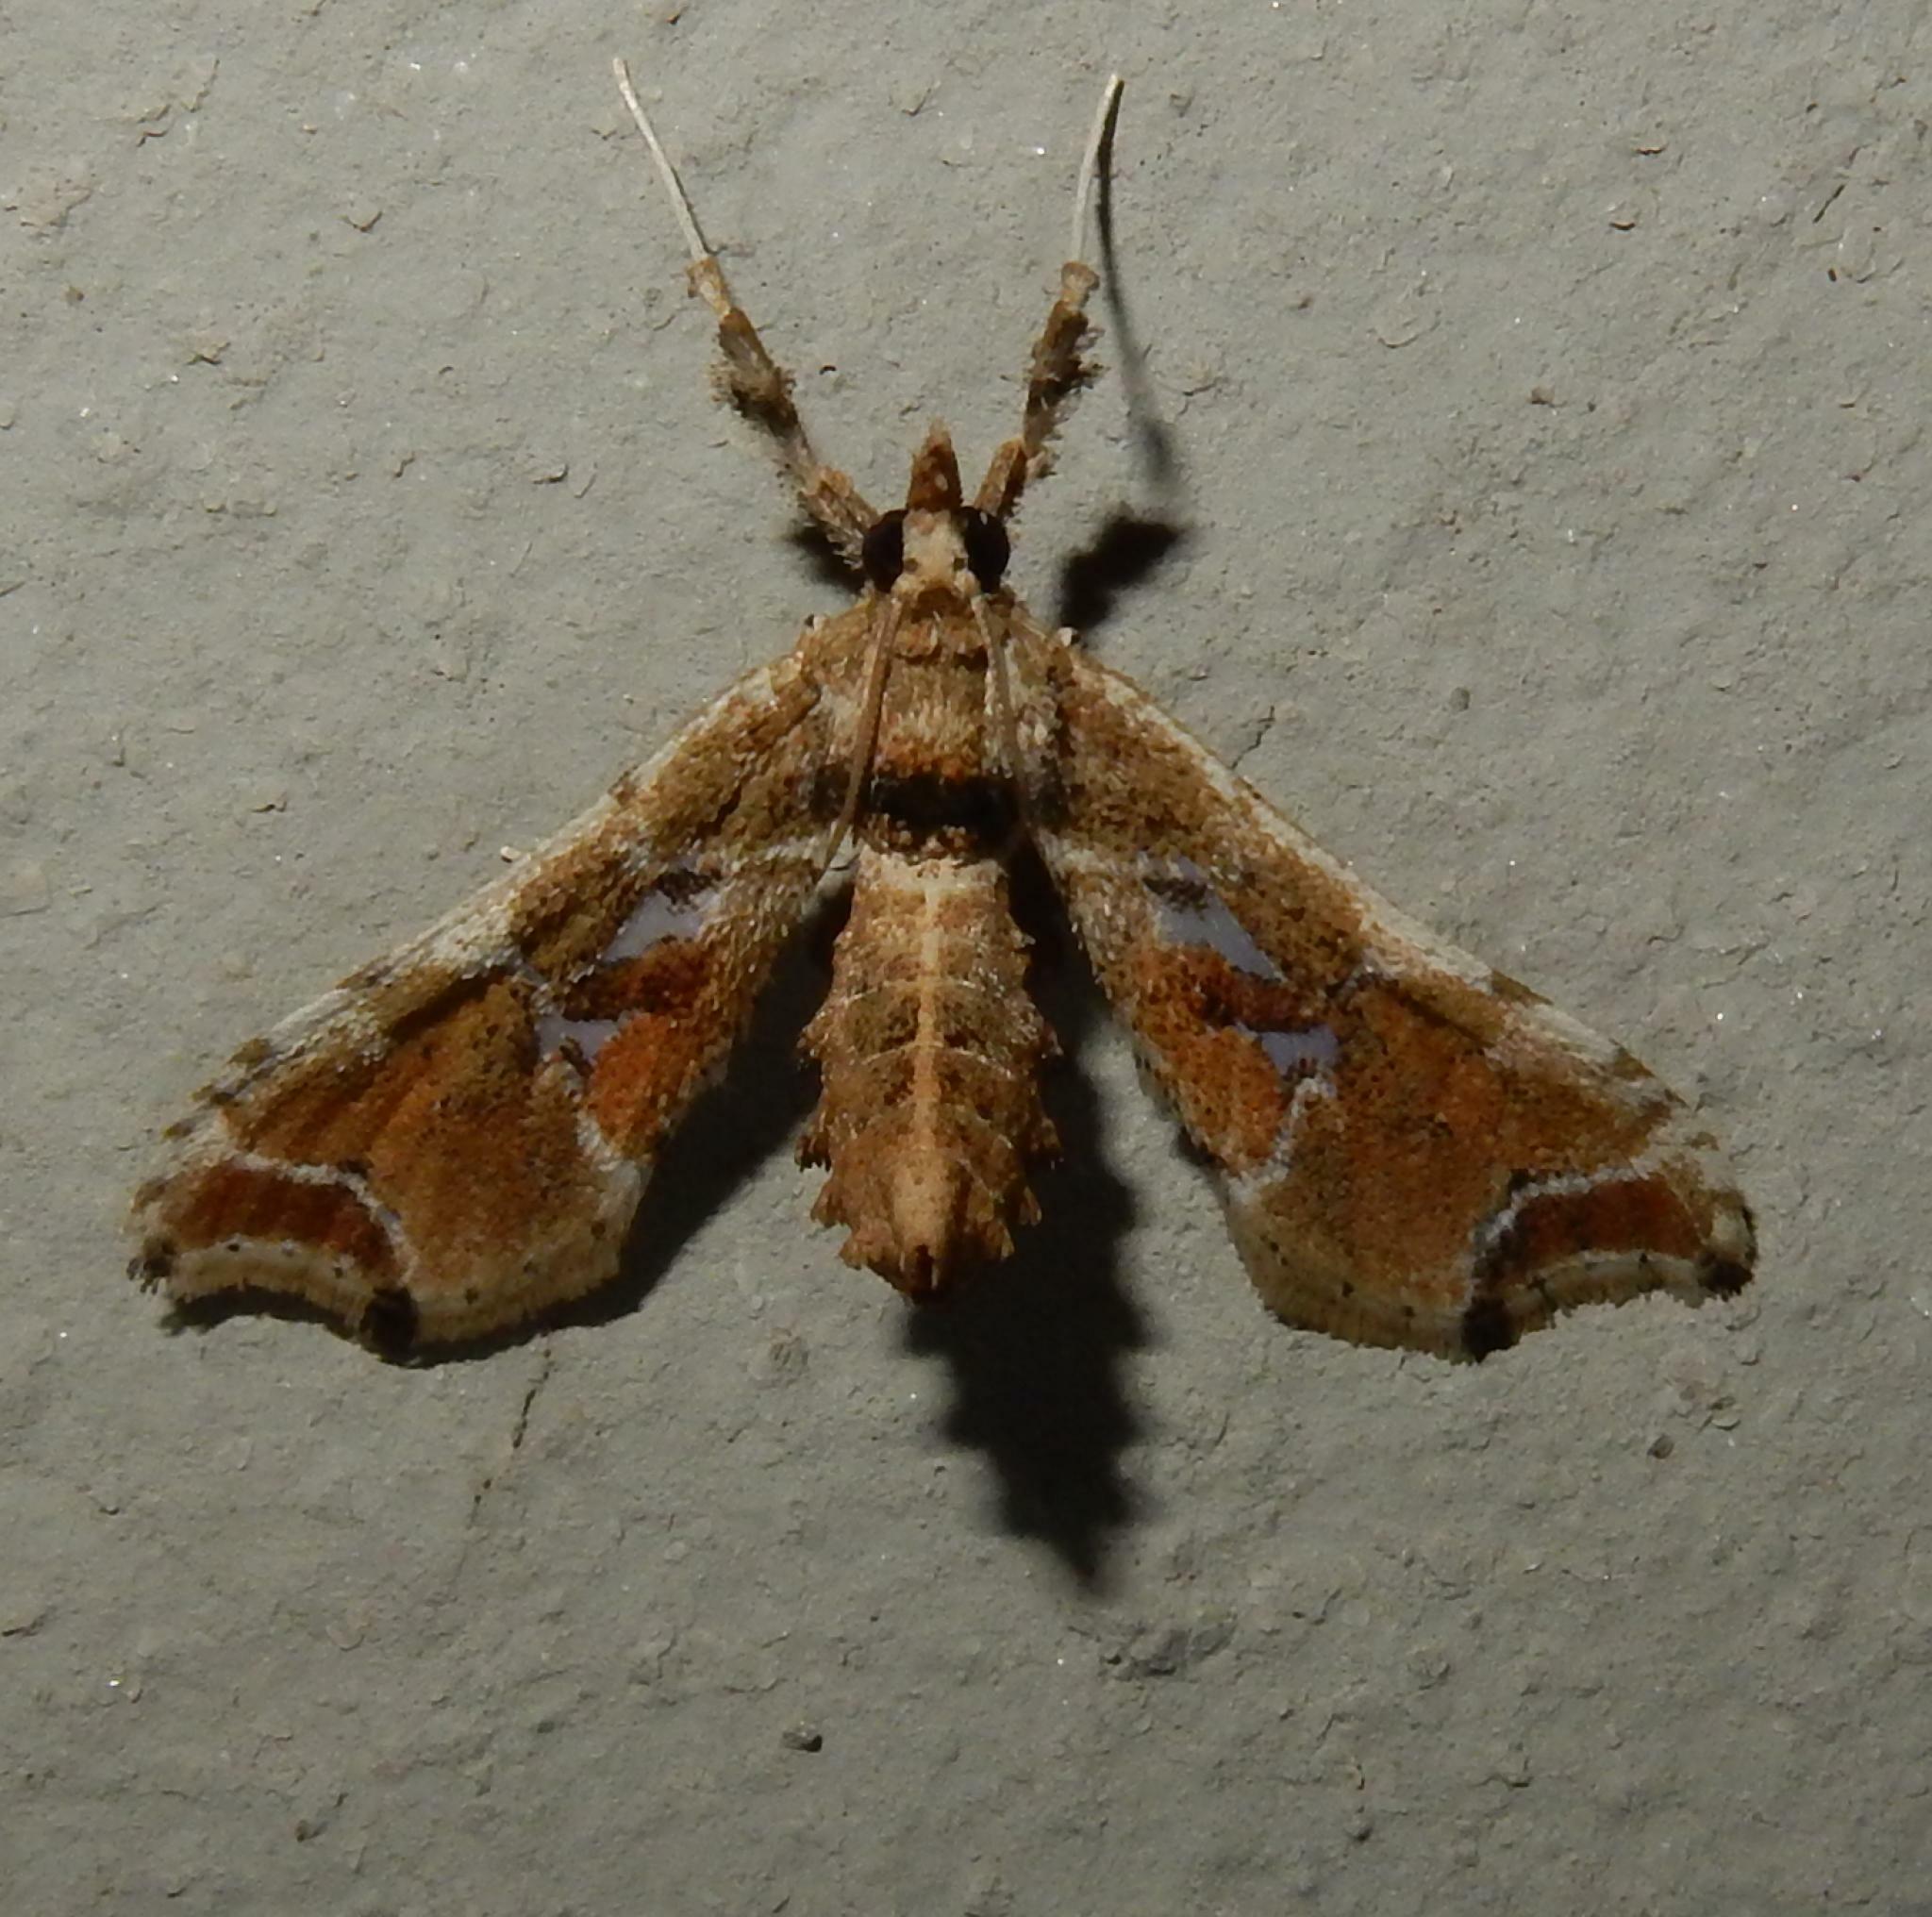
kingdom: Animalia
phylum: Arthropoda
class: Insecta
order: Lepidoptera
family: Crambidae
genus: Leucinodes
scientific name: Leucinodes laisalis
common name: African tomato pearl
